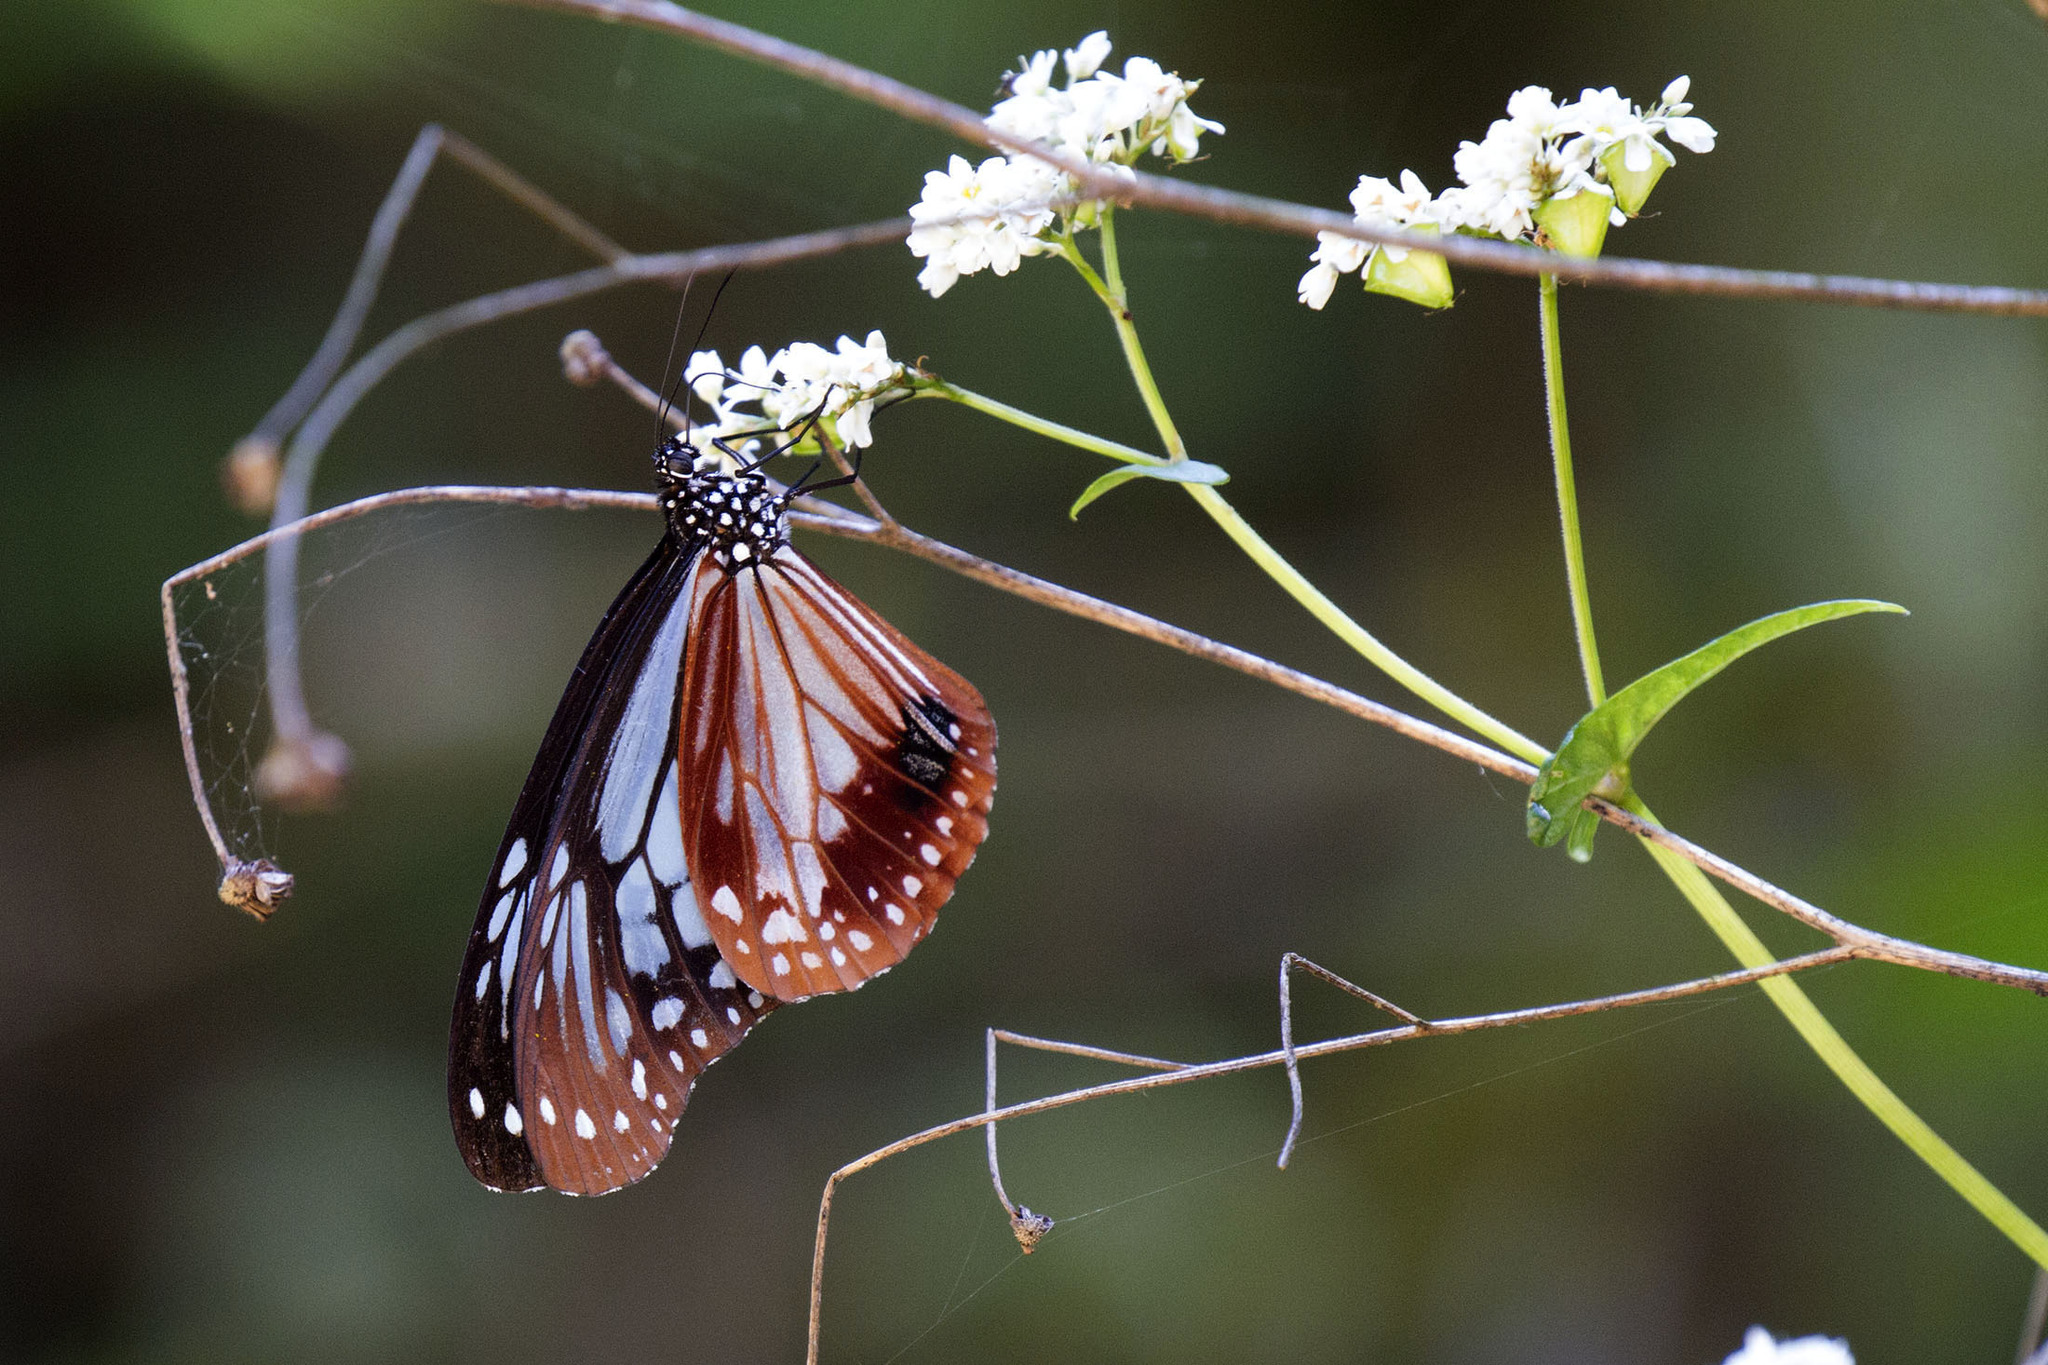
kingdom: Animalia
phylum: Arthropoda
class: Insecta
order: Lepidoptera
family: Nymphalidae
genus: Parantica
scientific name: Parantica sita
